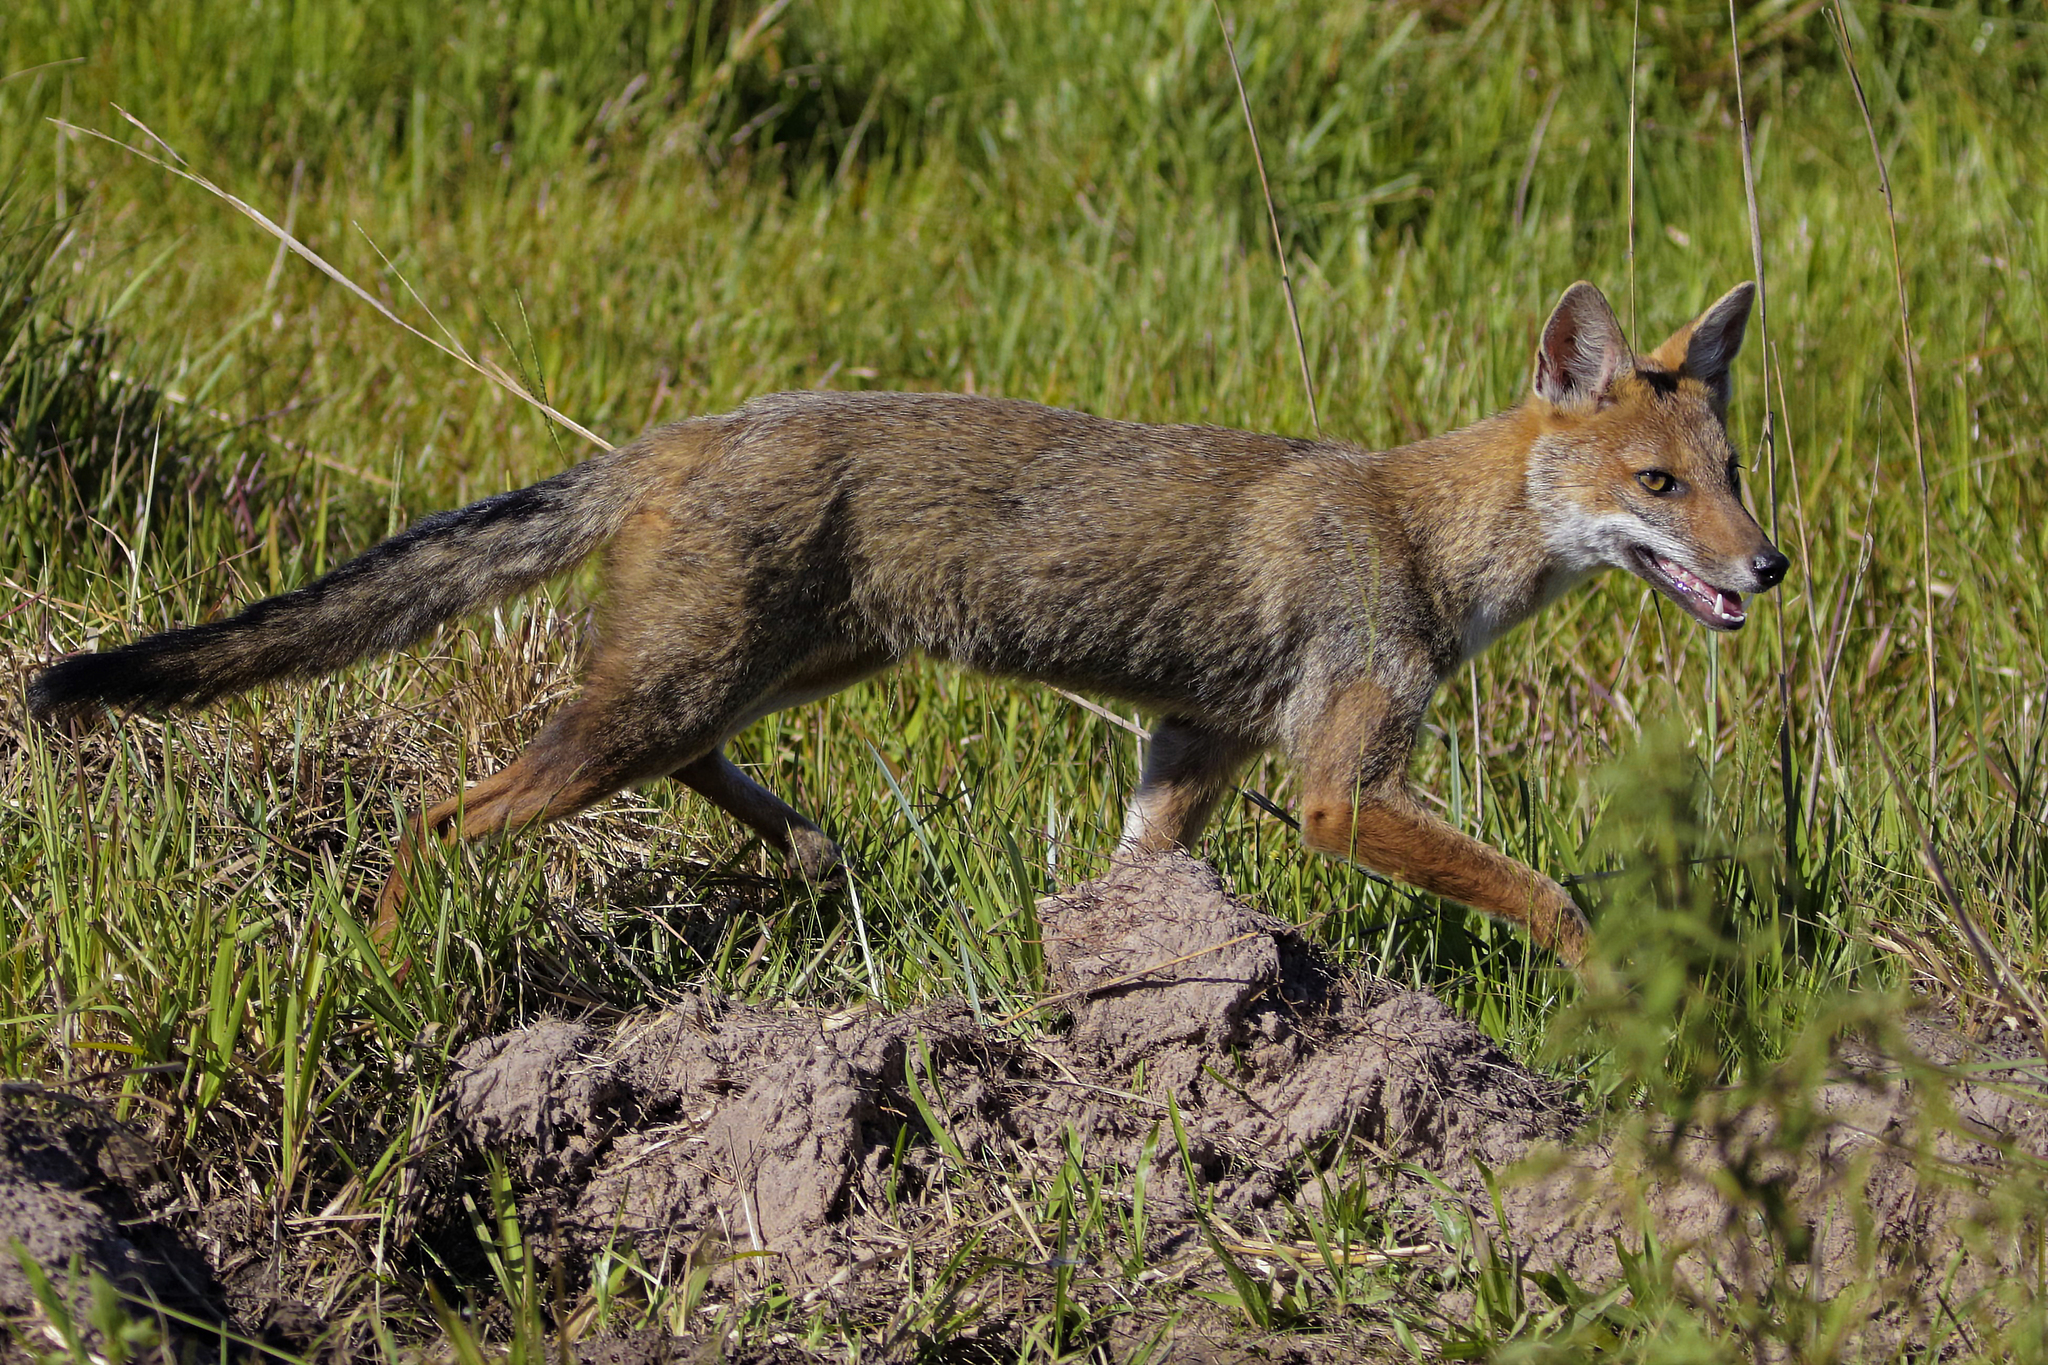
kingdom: Animalia
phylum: Chordata
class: Mammalia
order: Carnivora
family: Canidae
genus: Lycalopex
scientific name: Lycalopex gymnocercus
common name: Pampas fox
